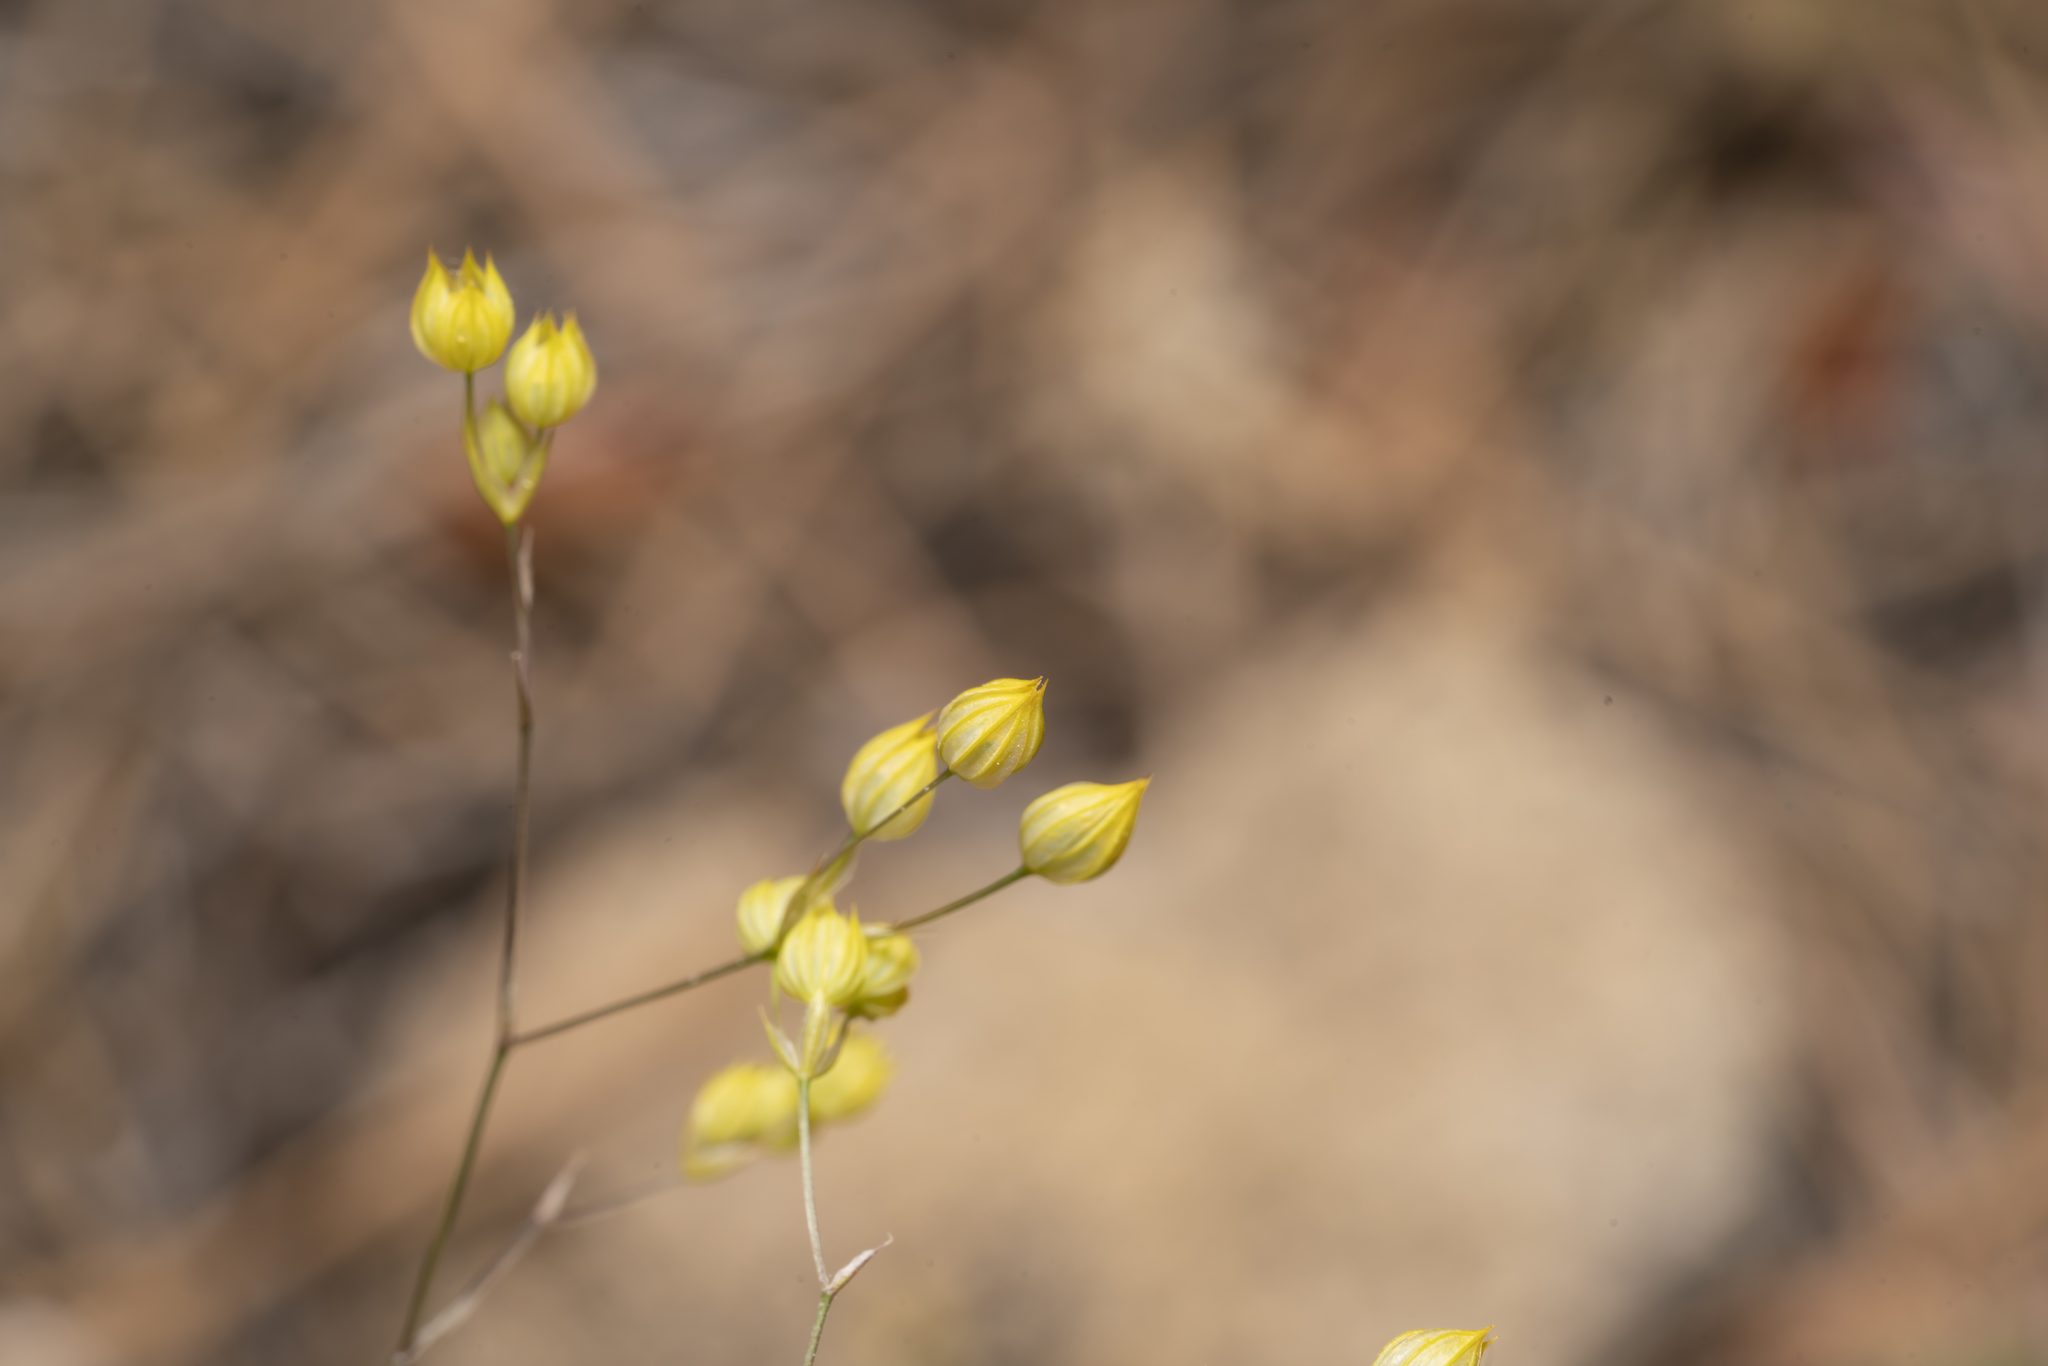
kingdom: Plantae
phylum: Tracheophyta
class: Magnoliopsida
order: Apiales
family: Apiaceae
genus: Bupleurum
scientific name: Bupleurum gracile
